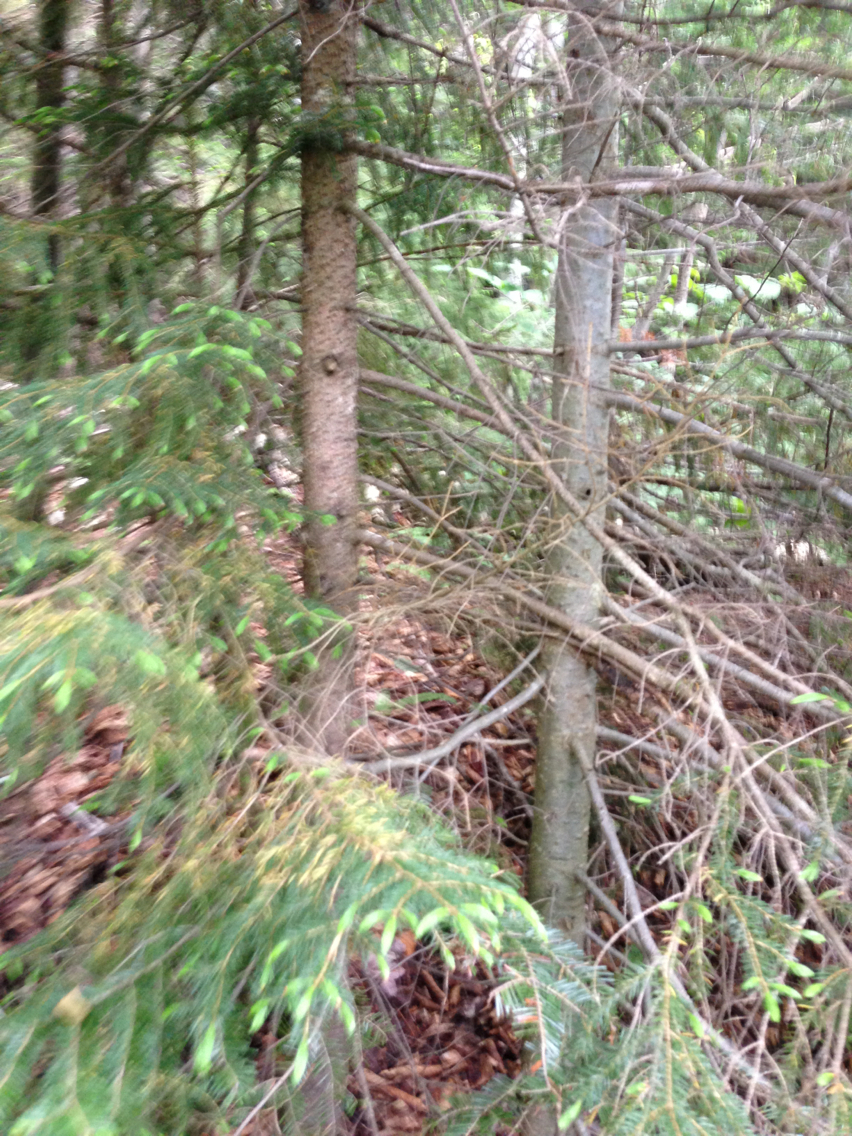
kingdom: Plantae
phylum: Tracheophyta
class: Pinopsida
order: Pinales
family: Pinaceae
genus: Abies
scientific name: Abies balsamea
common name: Balsam fir
